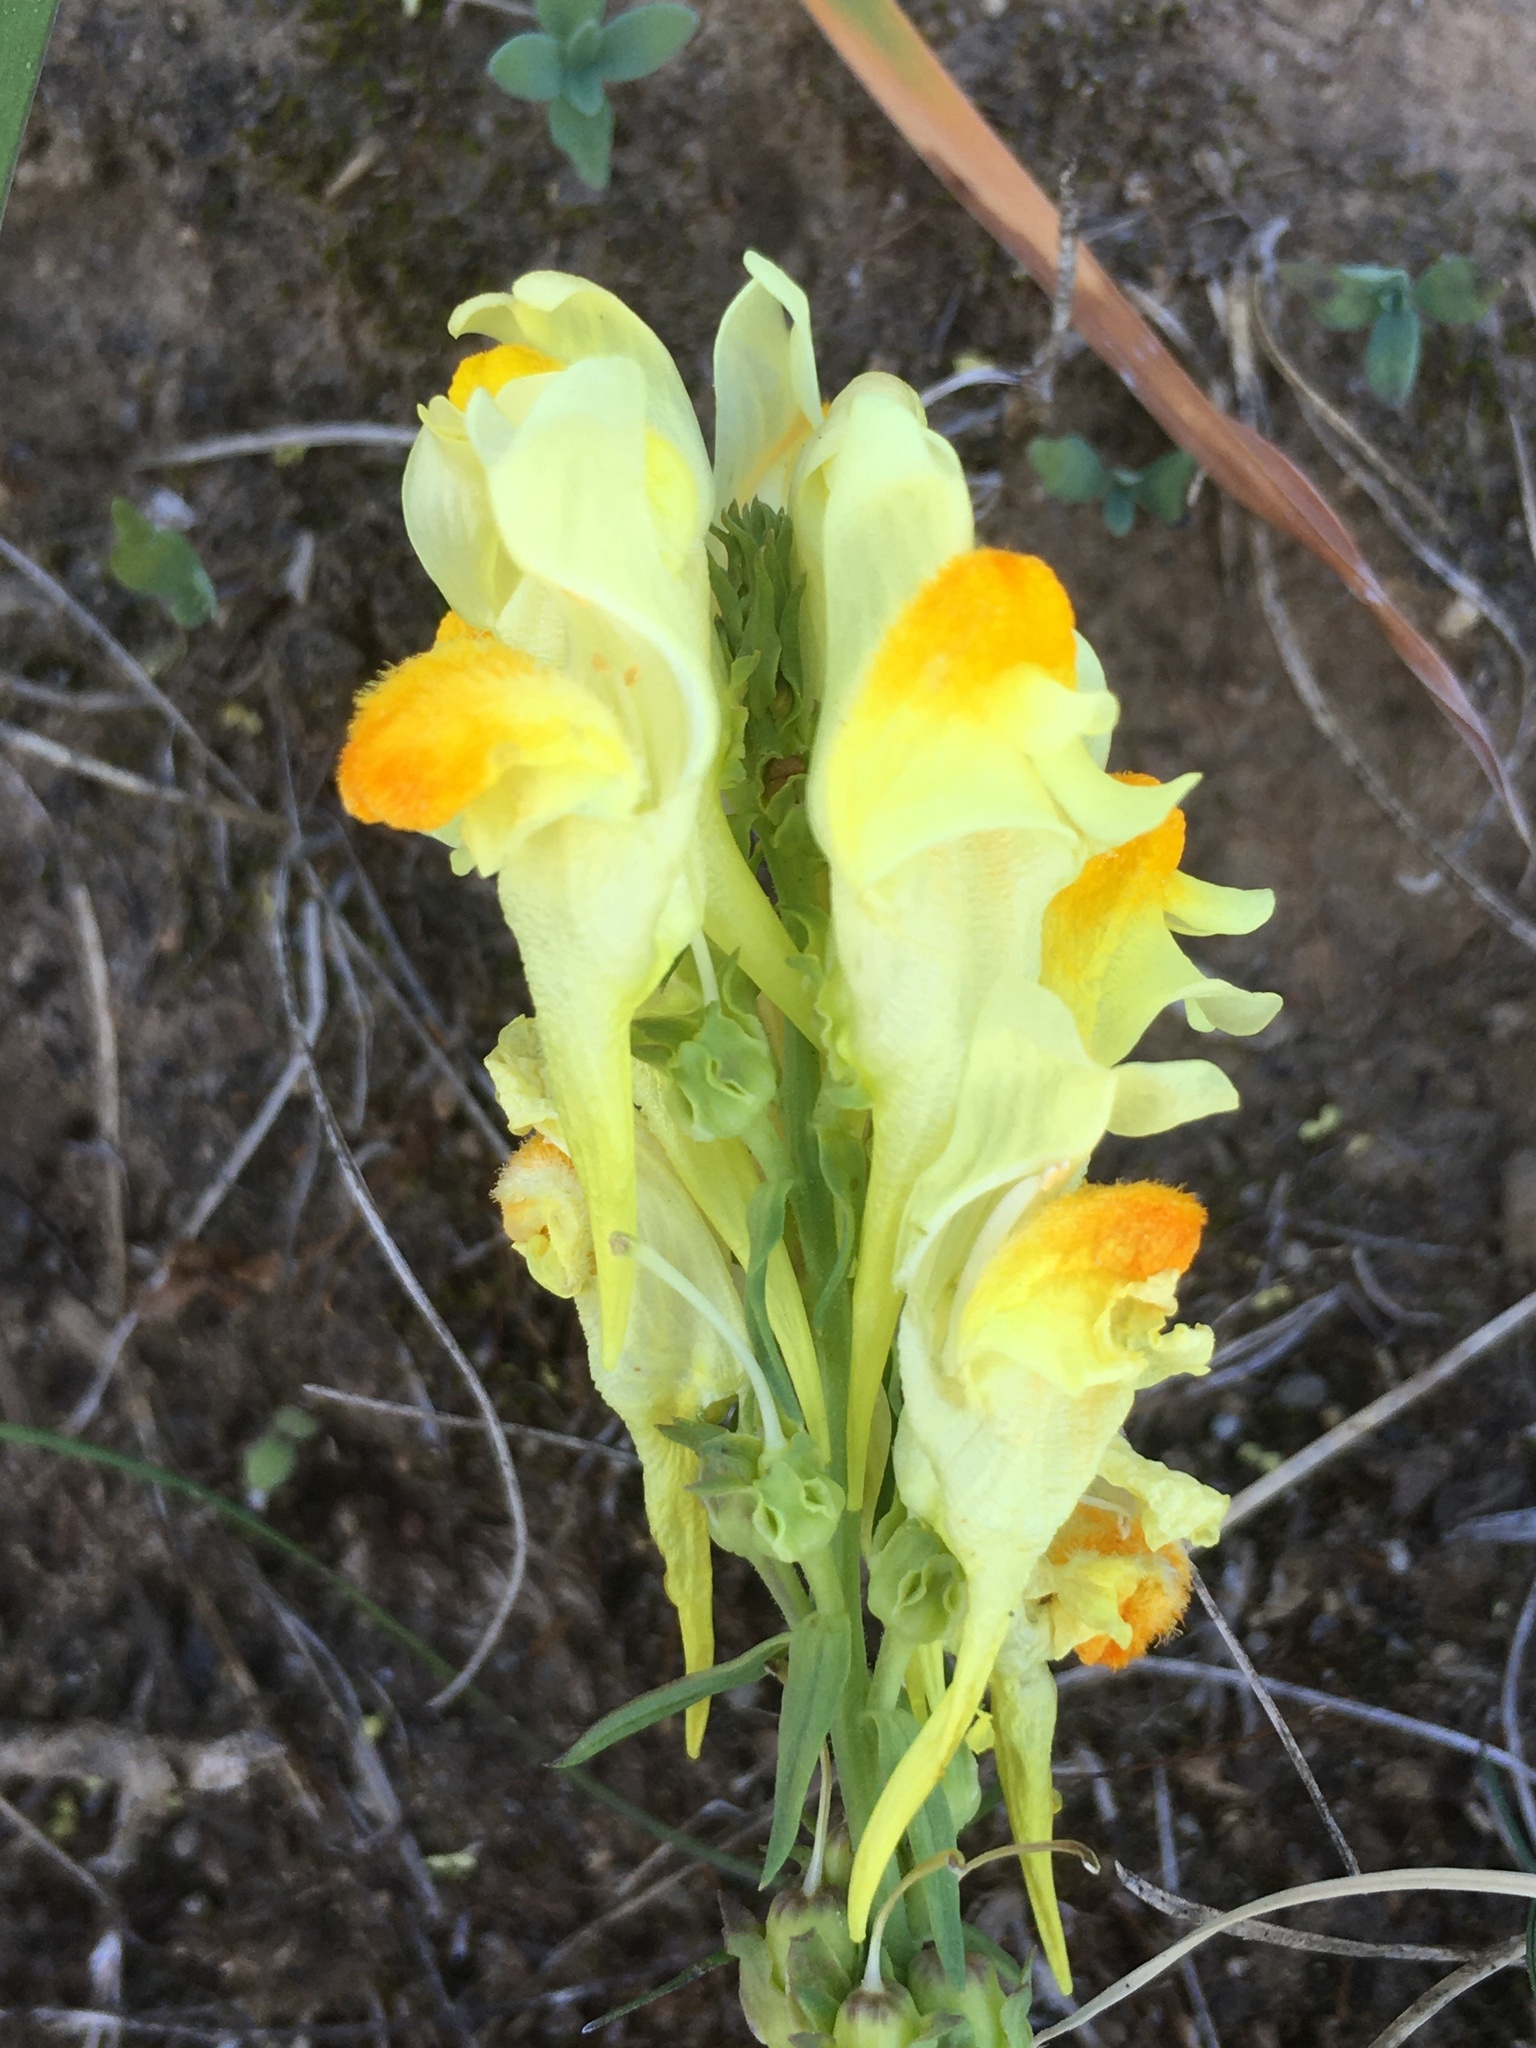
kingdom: Plantae
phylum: Tracheophyta
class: Magnoliopsida
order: Lamiales
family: Plantaginaceae
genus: Linaria
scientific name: Linaria vulgaris
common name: Butter and eggs
